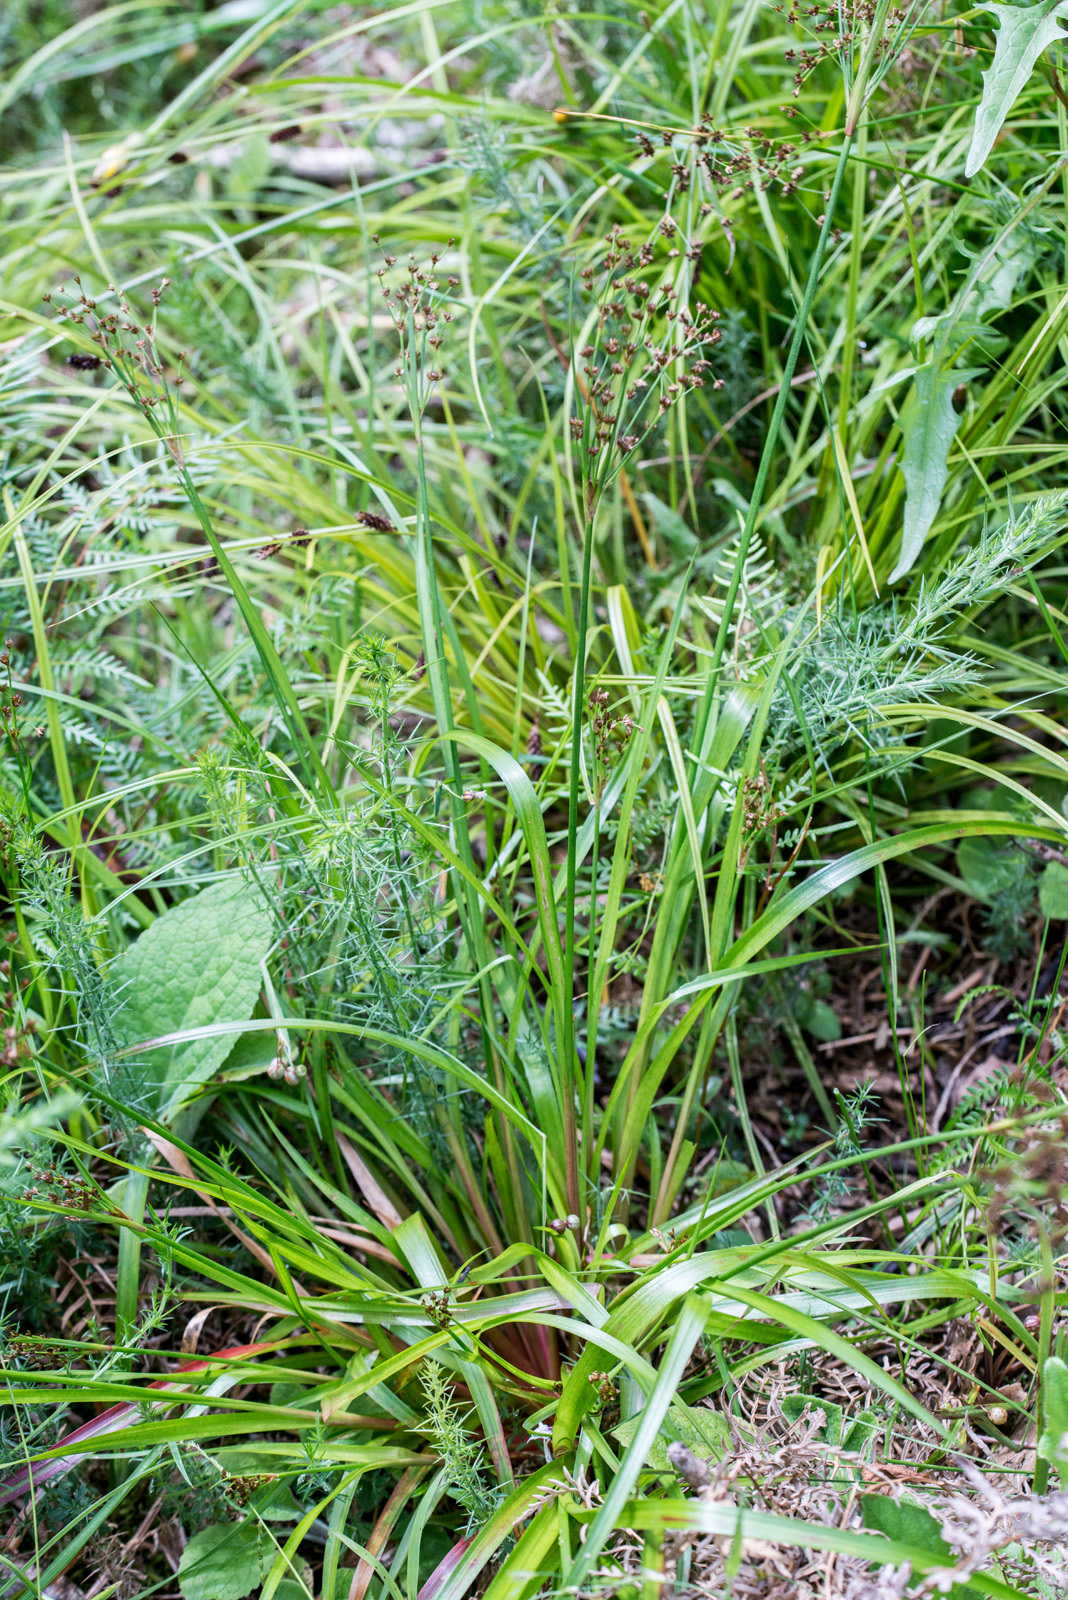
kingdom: Plantae
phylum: Tracheophyta
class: Liliopsida
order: Poales
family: Juncaceae
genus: Juncus
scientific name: Juncus planifolius
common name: Broadleaf rush
